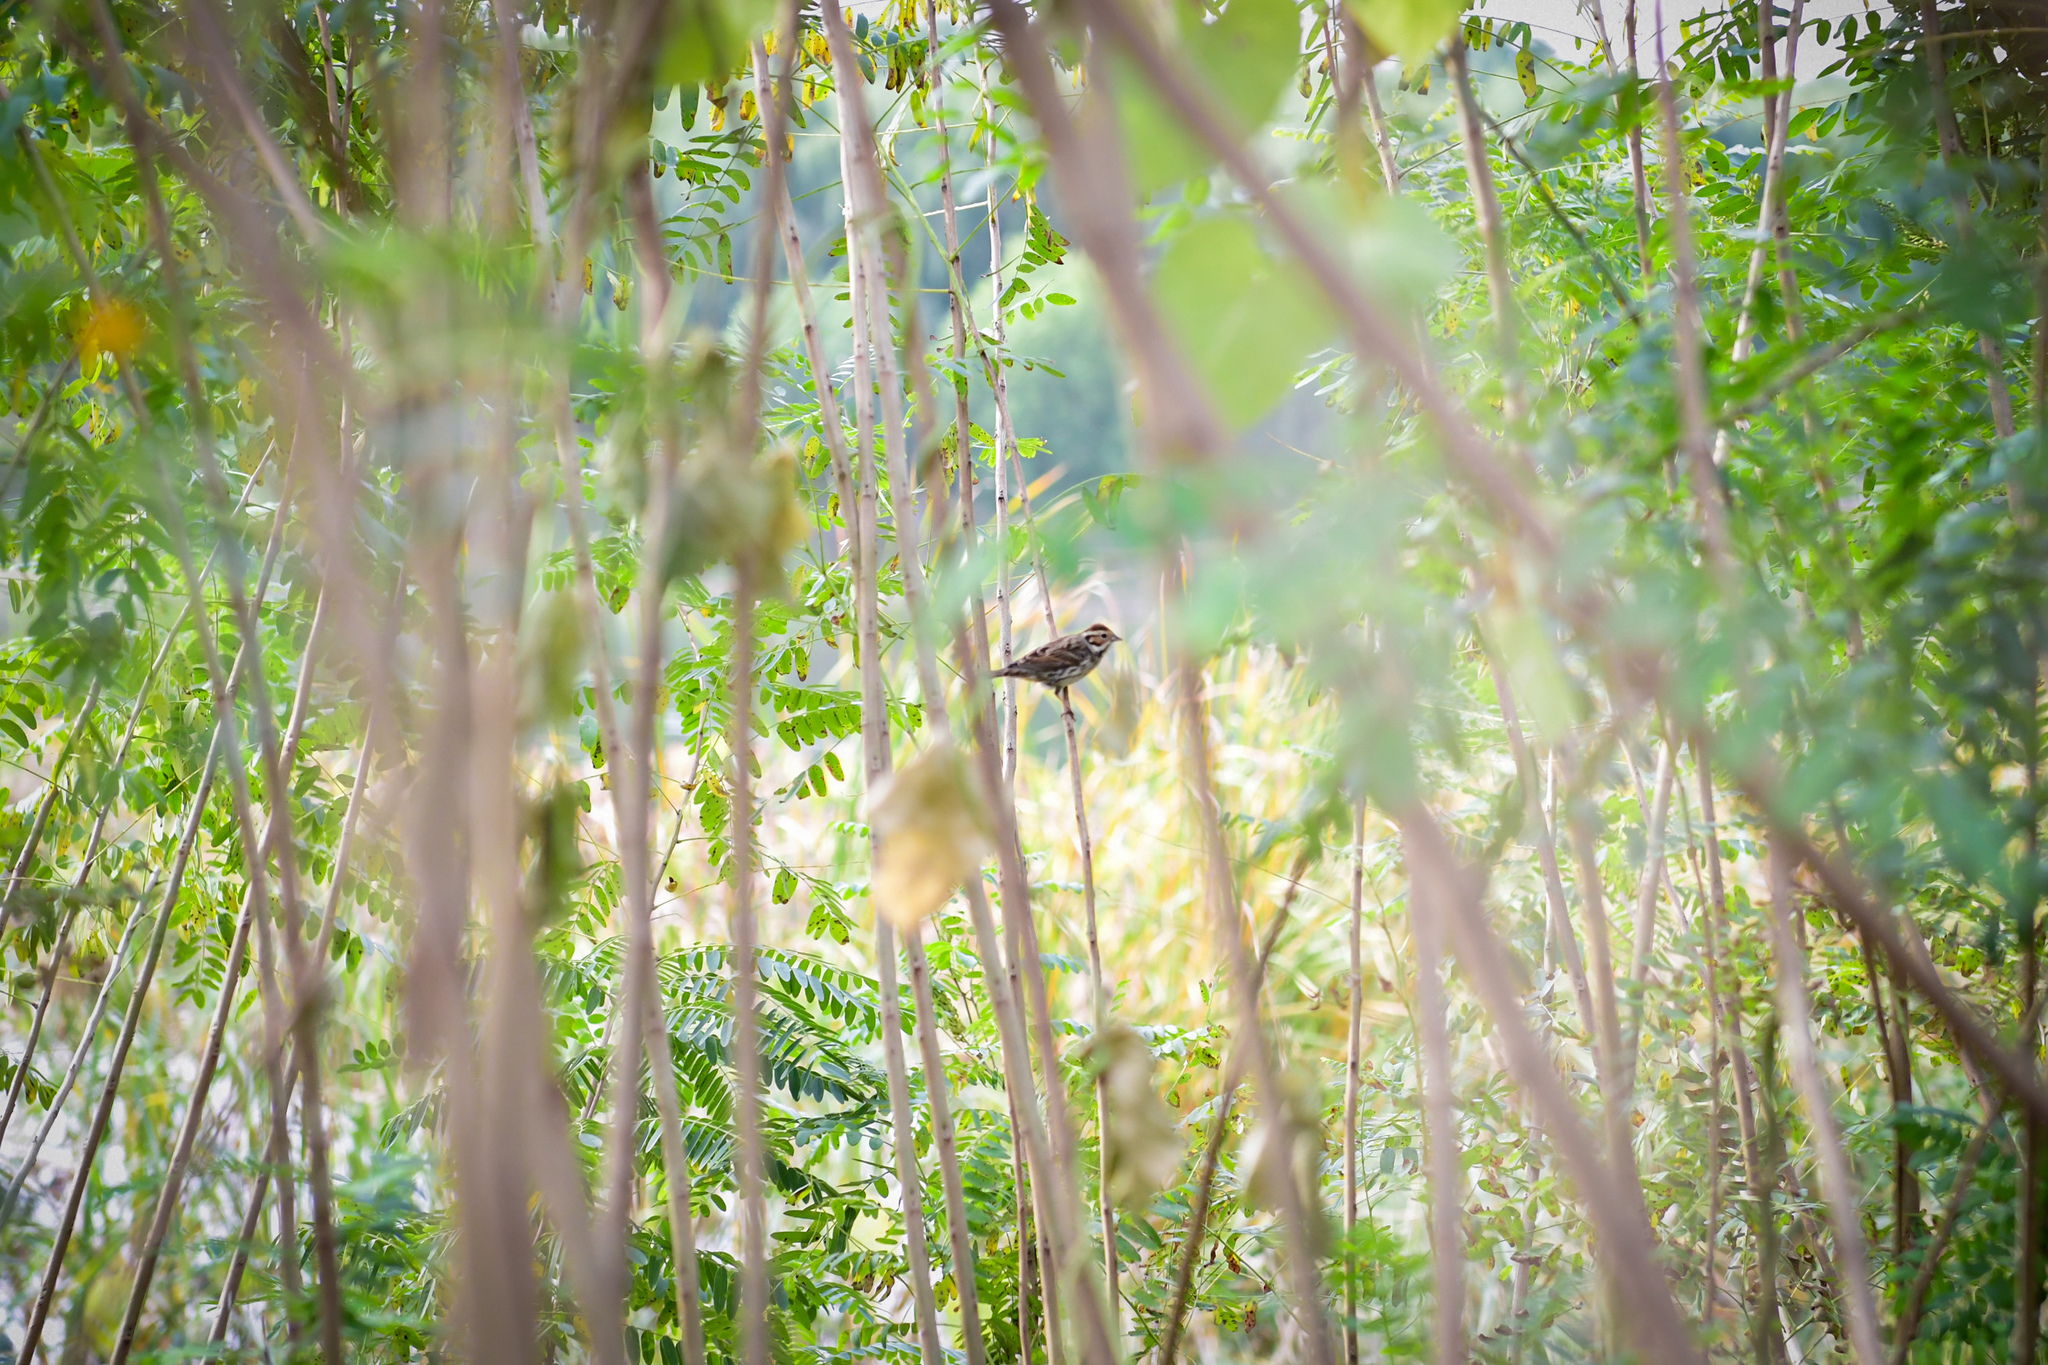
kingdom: Animalia
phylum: Chordata
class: Aves
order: Passeriformes
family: Emberizidae
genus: Emberiza
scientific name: Emberiza pusilla
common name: Little bunting
